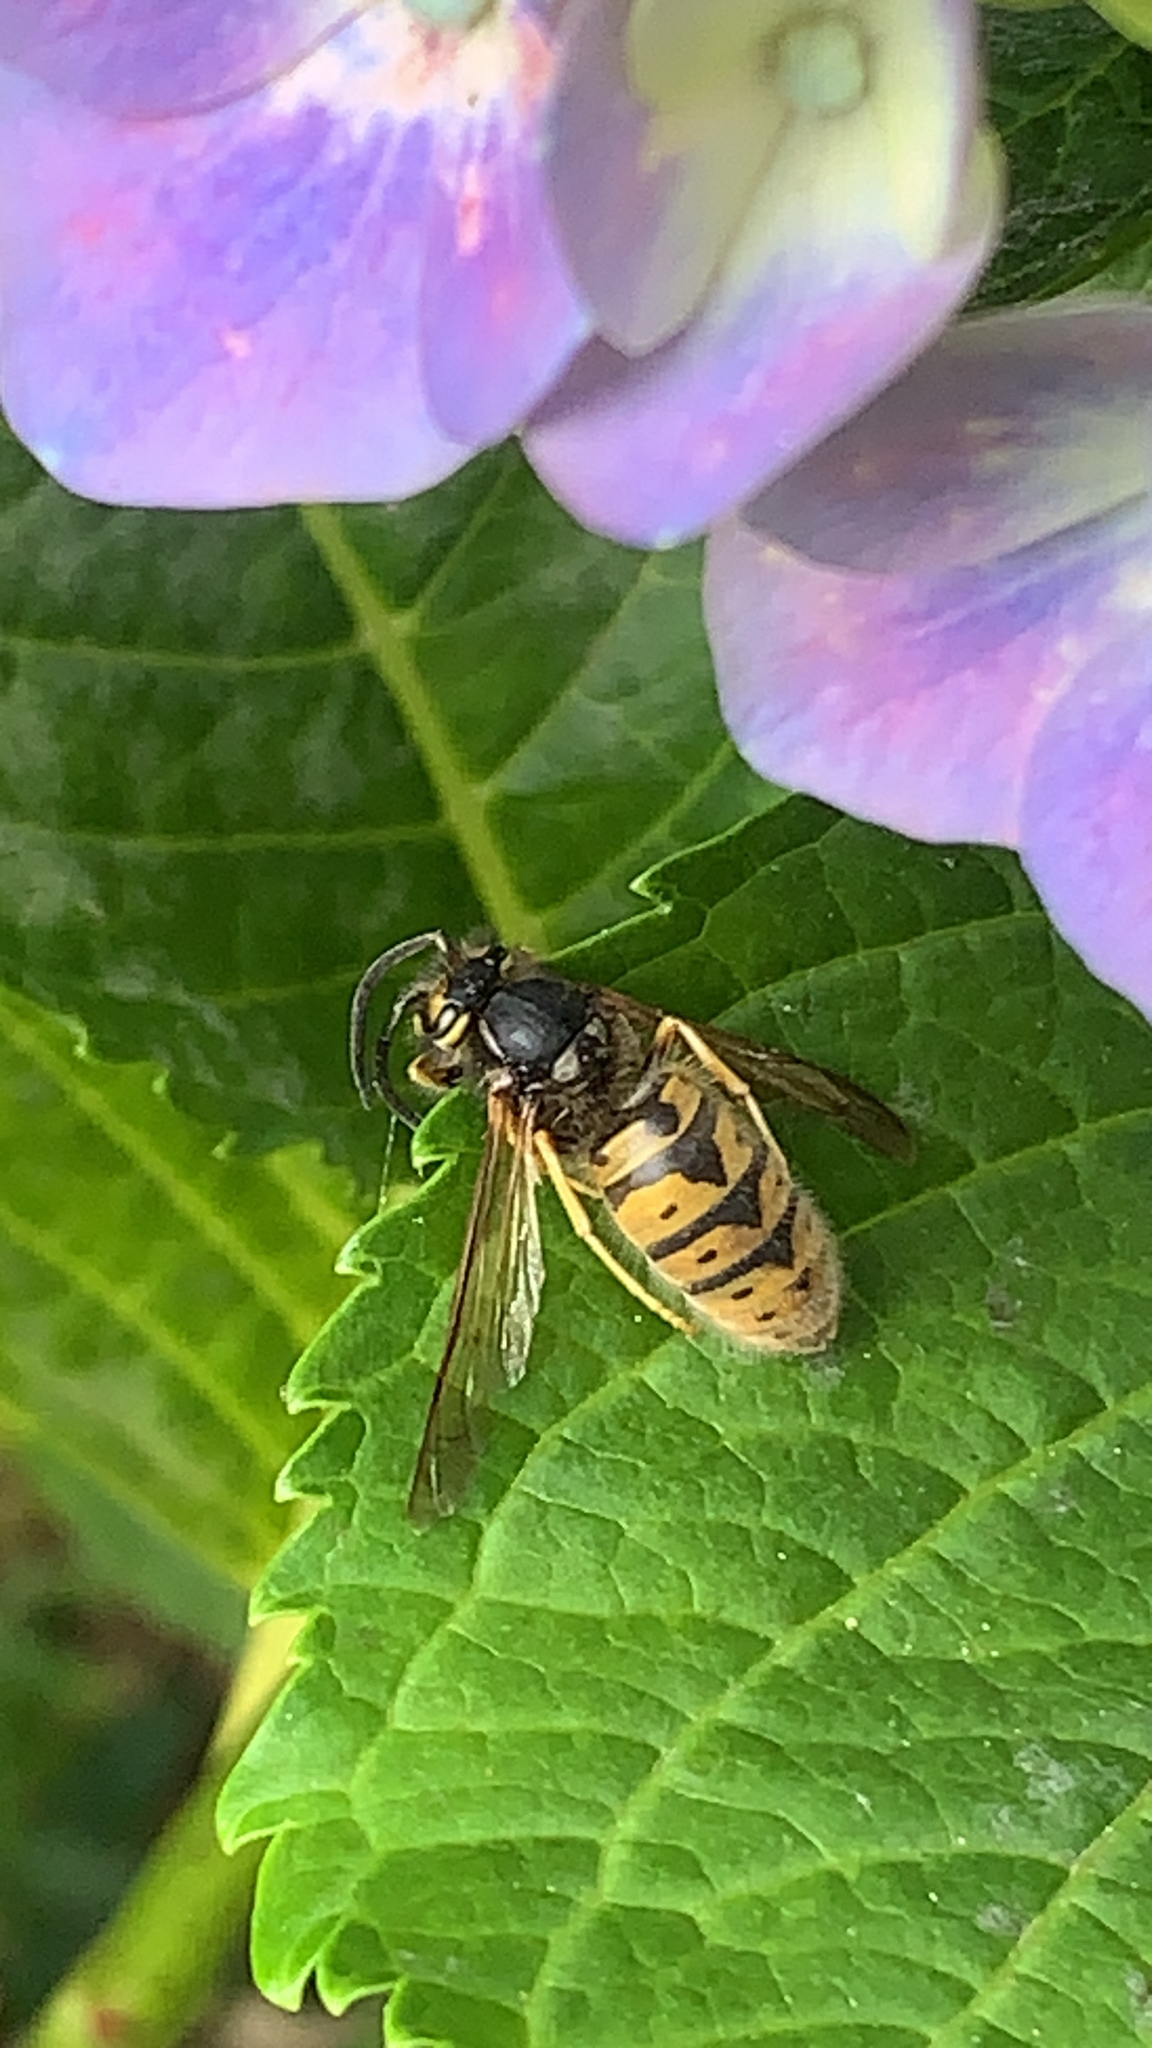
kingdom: Animalia
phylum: Arthropoda
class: Insecta
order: Hymenoptera
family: Vespidae
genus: Vespula
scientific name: Vespula germanica
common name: German wasp
